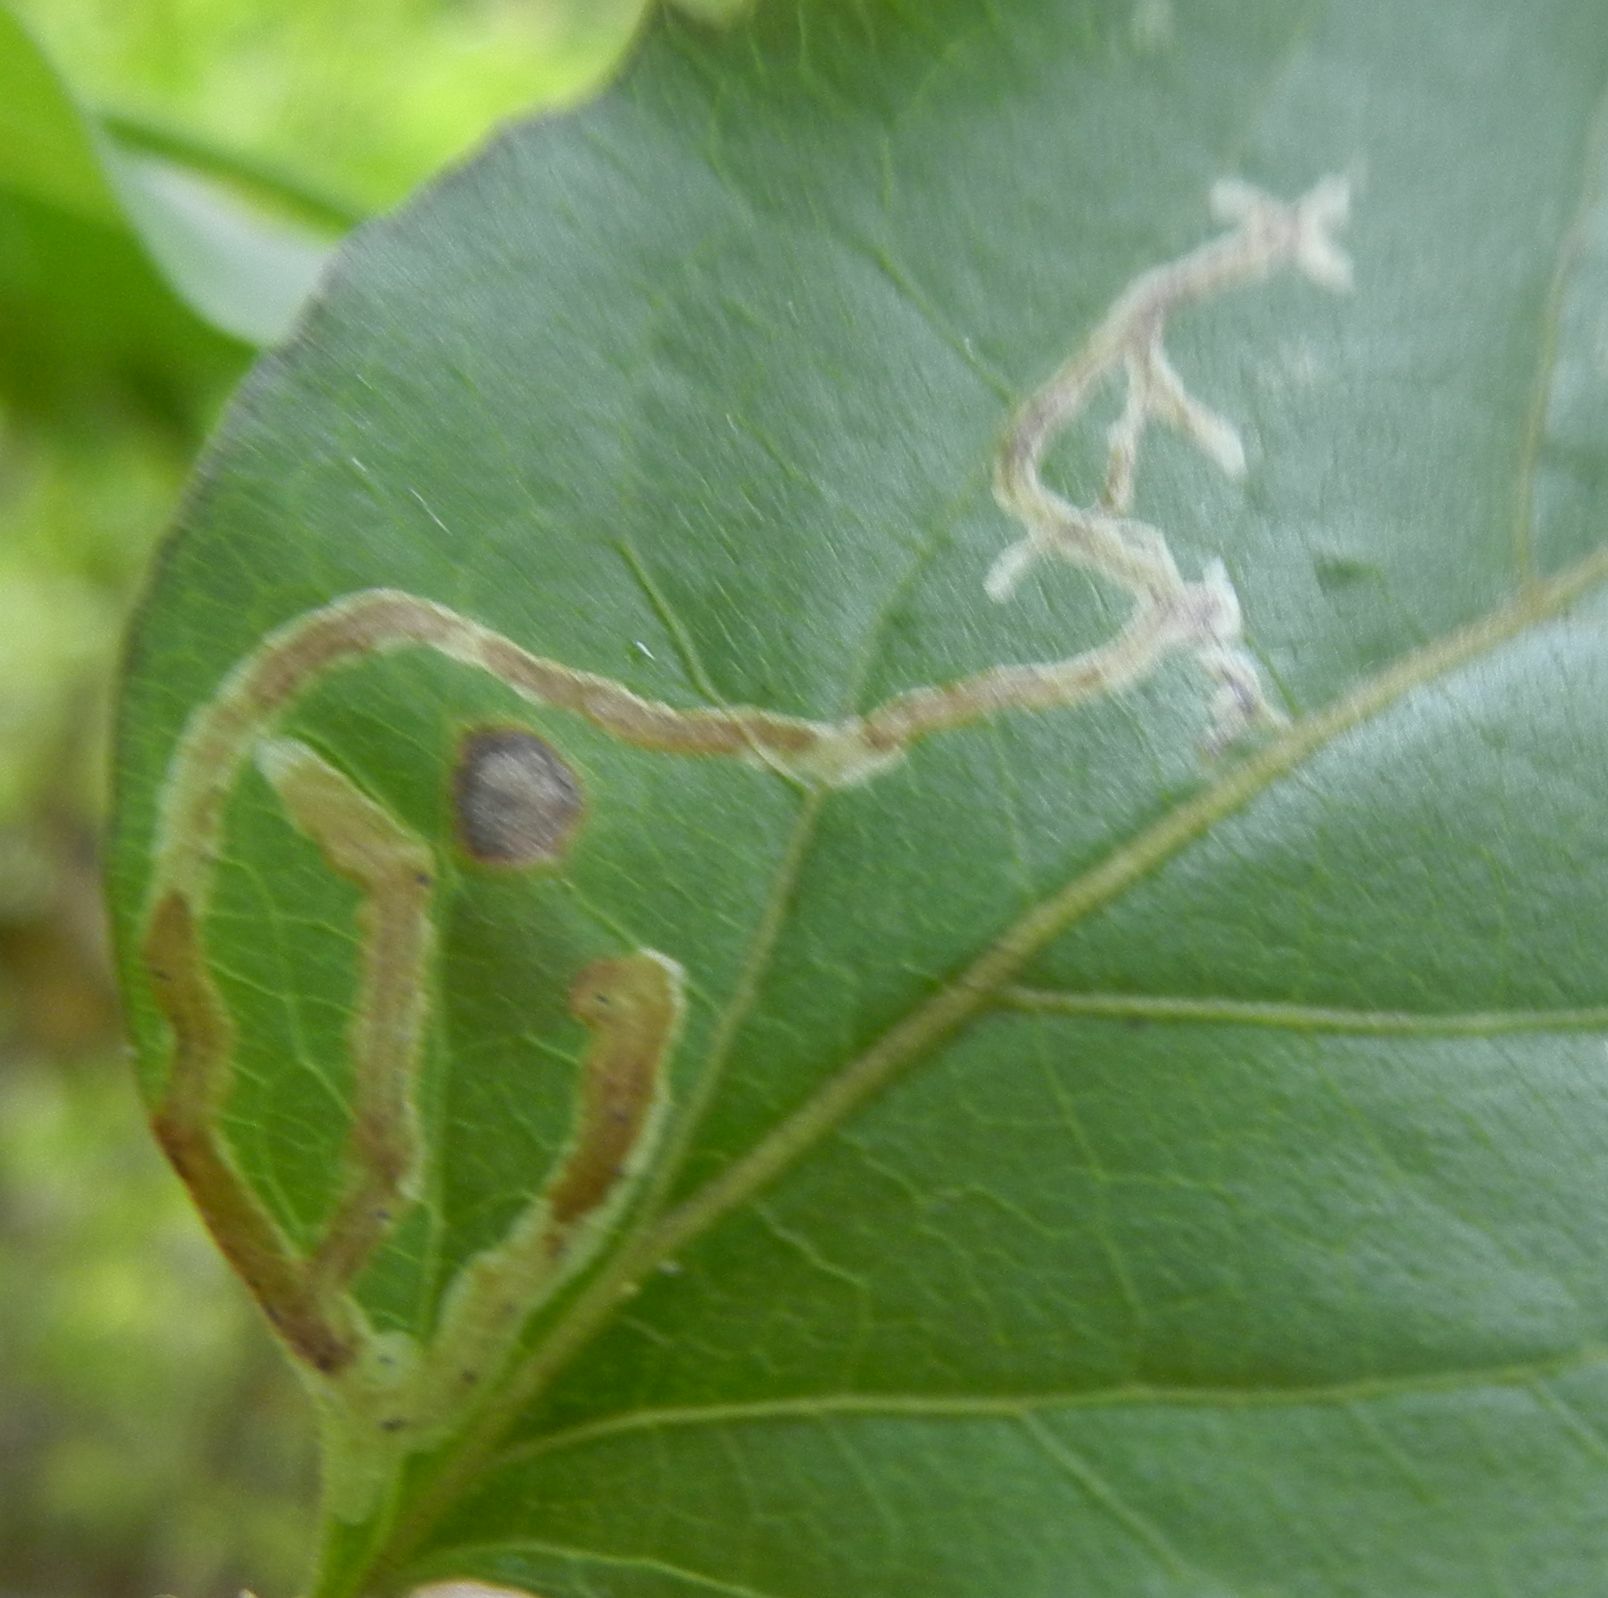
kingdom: Animalia
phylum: Arthropoda
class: Insecta
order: Diptera
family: Agromyzidae
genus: Phytomyza
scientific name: Phytomyza lonicerae
